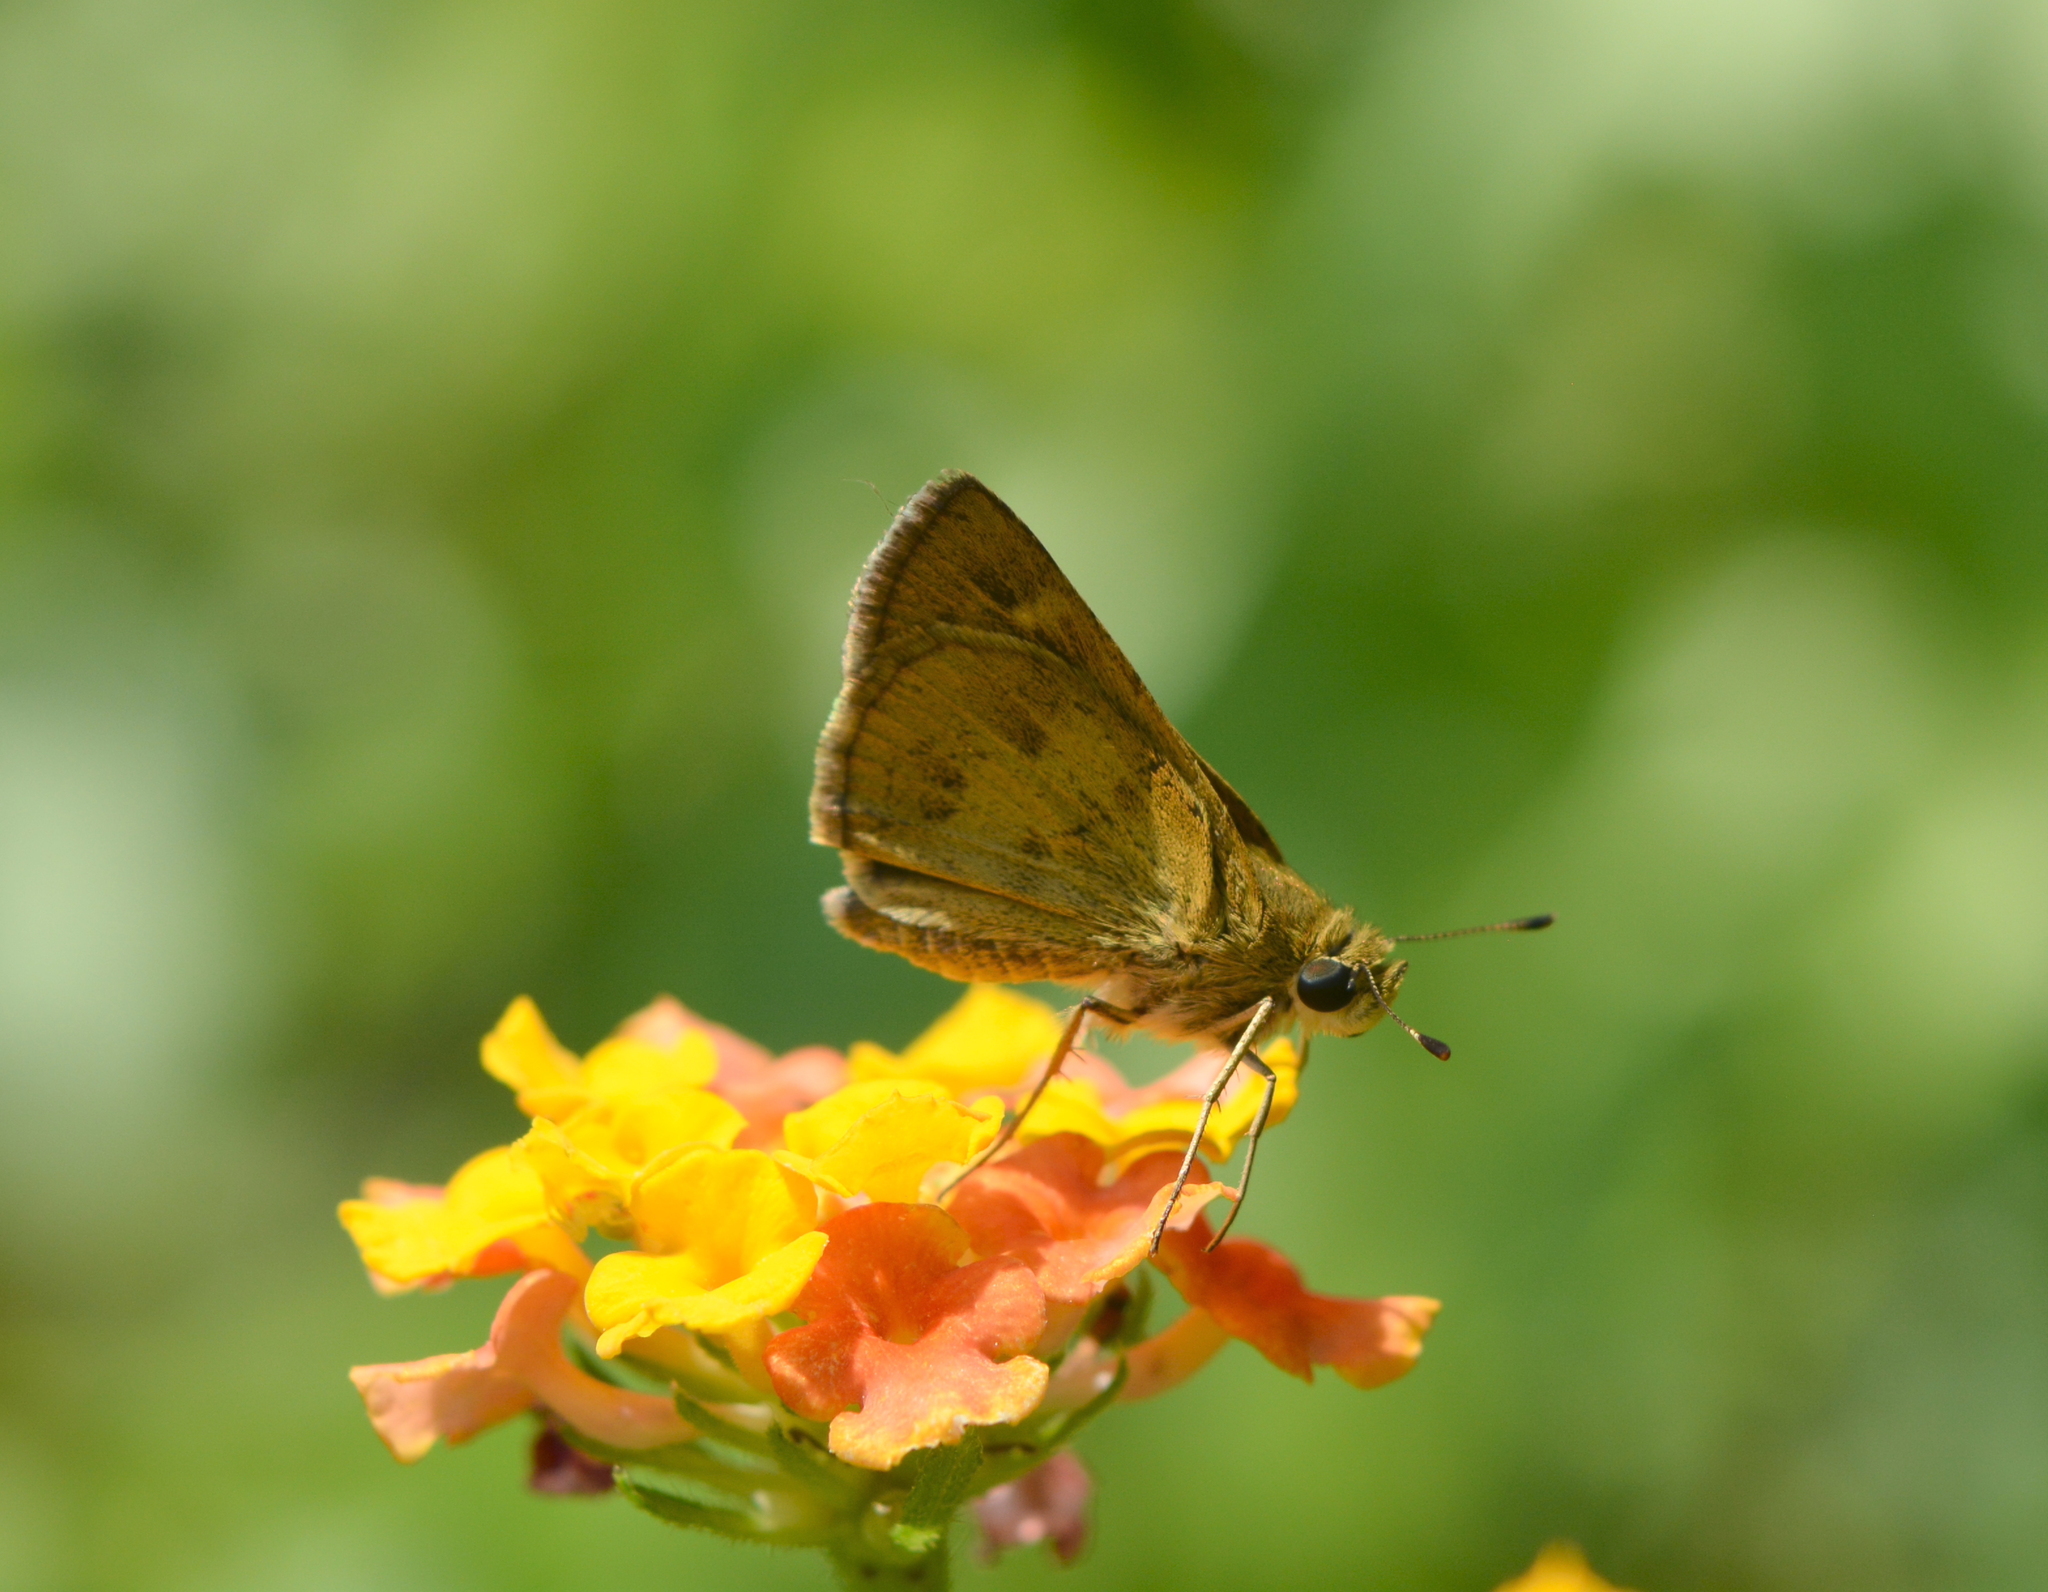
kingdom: Animalia
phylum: Arthropoda
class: Insecta
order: Lepidoptera
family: Hesperiidae
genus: Polites
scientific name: Polites vibex
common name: Whirlabout
